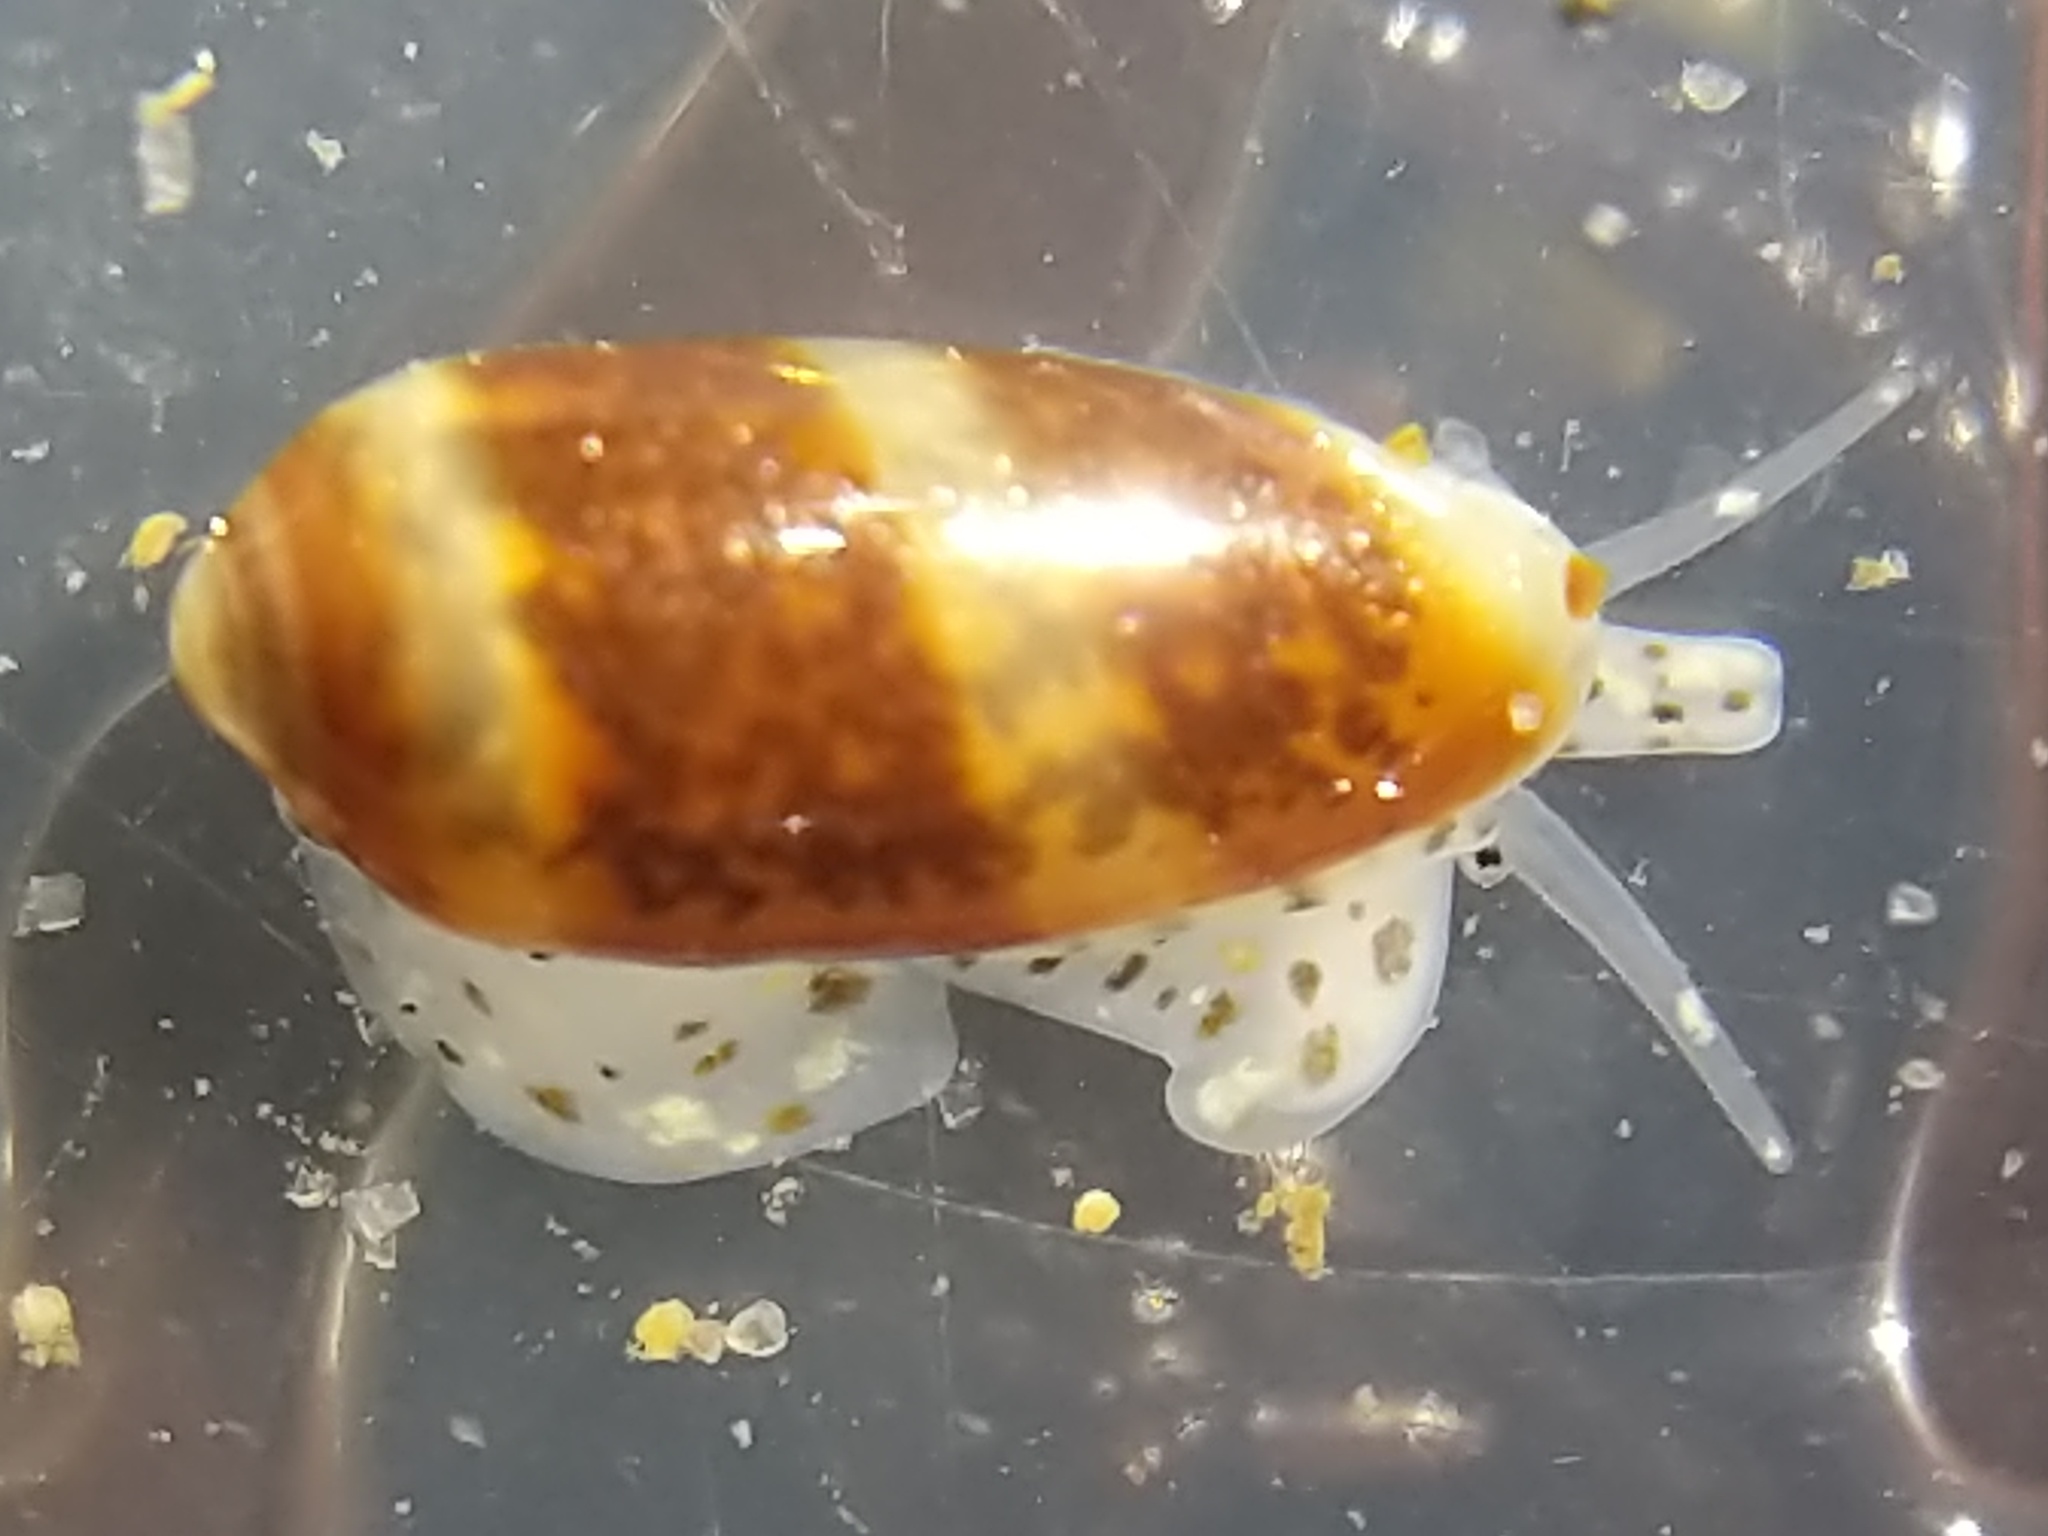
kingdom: Animalia
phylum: Mollusca
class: Gastropoda
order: Neogastropoda
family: Marginellidae
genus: Volvarina
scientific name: Volvarina taeniolata
